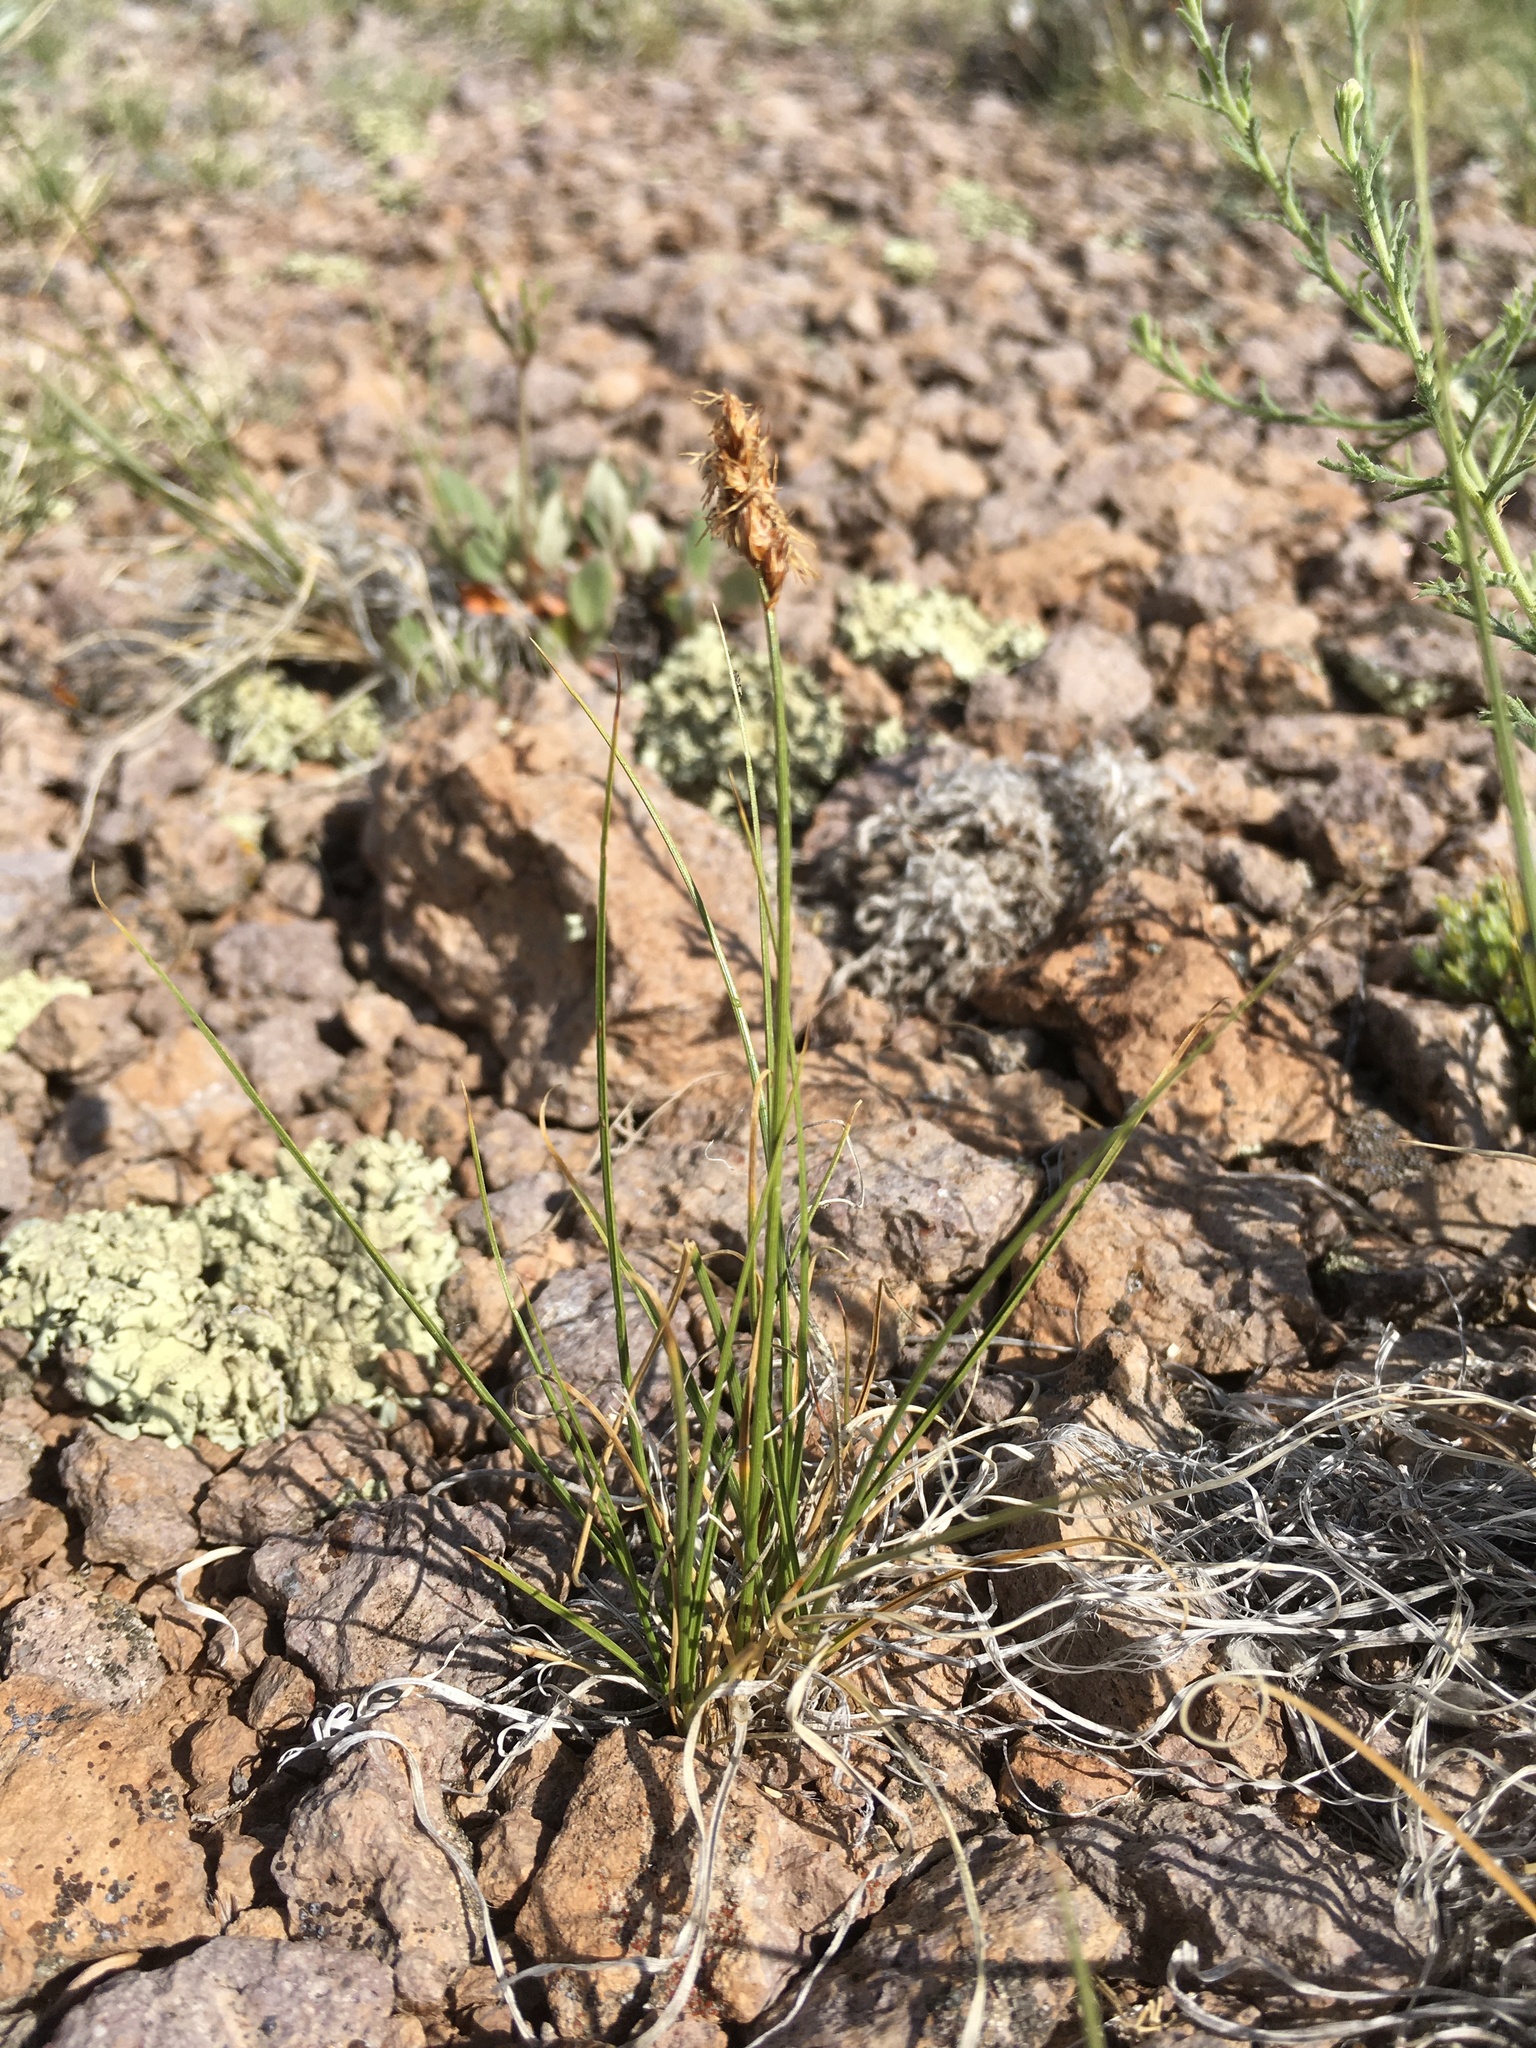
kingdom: Plantae
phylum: Tracheophyta
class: Liliopsida
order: Poales
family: Cyperaceae
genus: Carex
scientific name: Carex duriuscula
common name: Involute-leaved sedge
